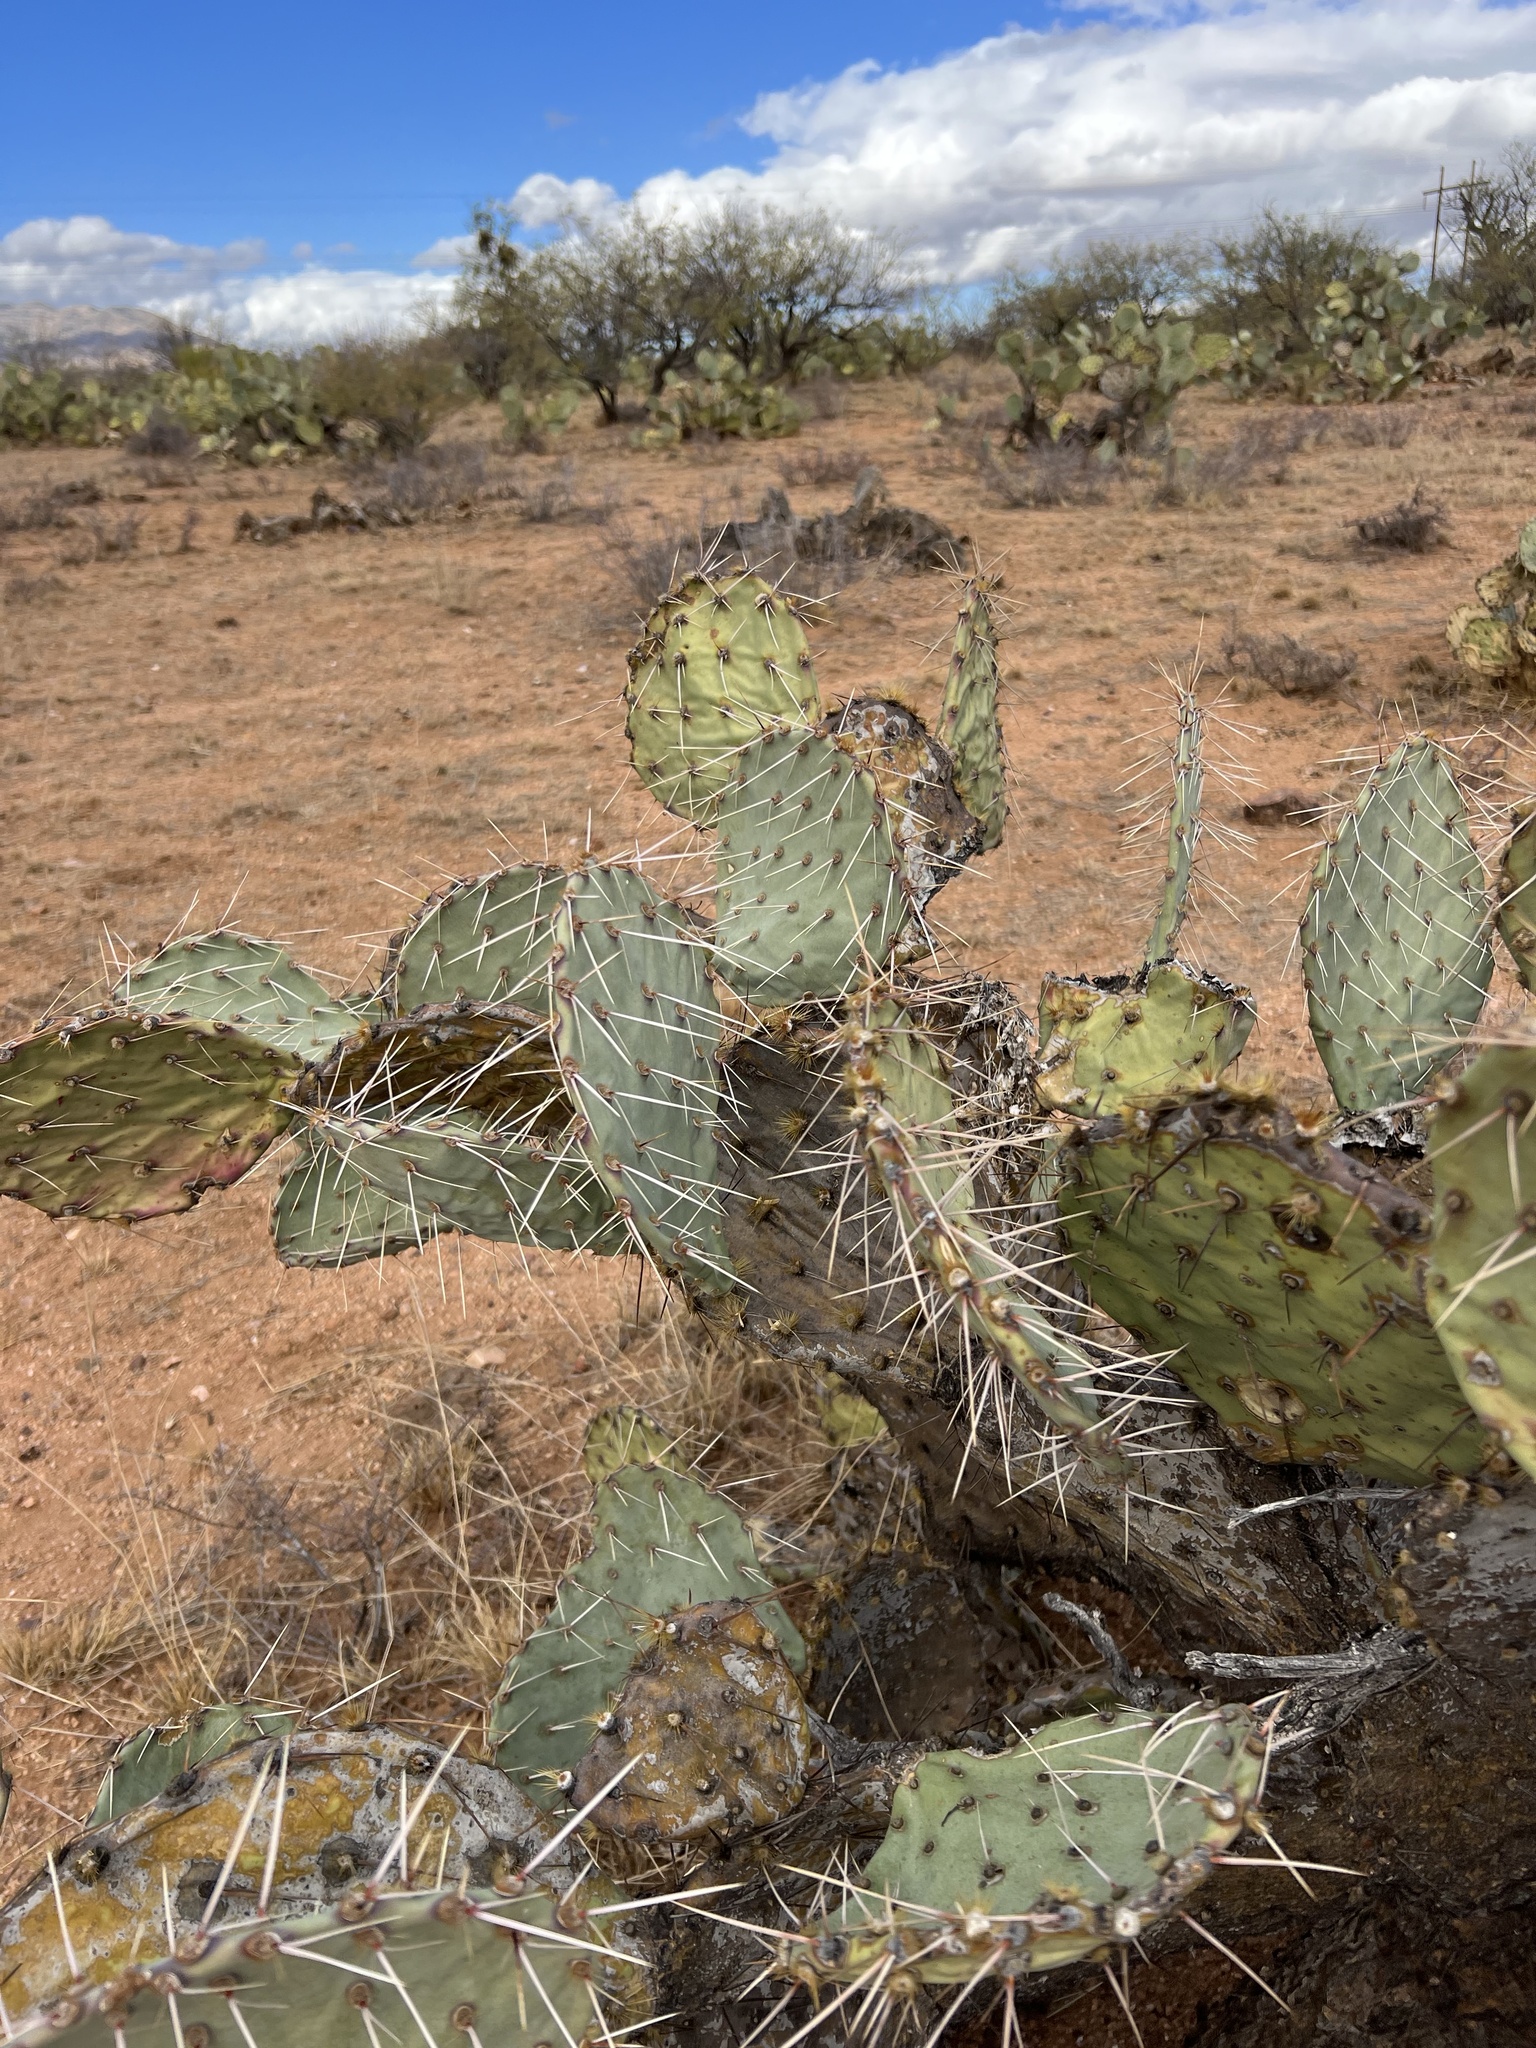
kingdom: Plantae
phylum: Tracheophyta
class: Magnoliopsida
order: Caryophyllales
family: Cactaceae
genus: Opuntia
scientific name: Opuntia engelmannii
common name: Cactus-apple
